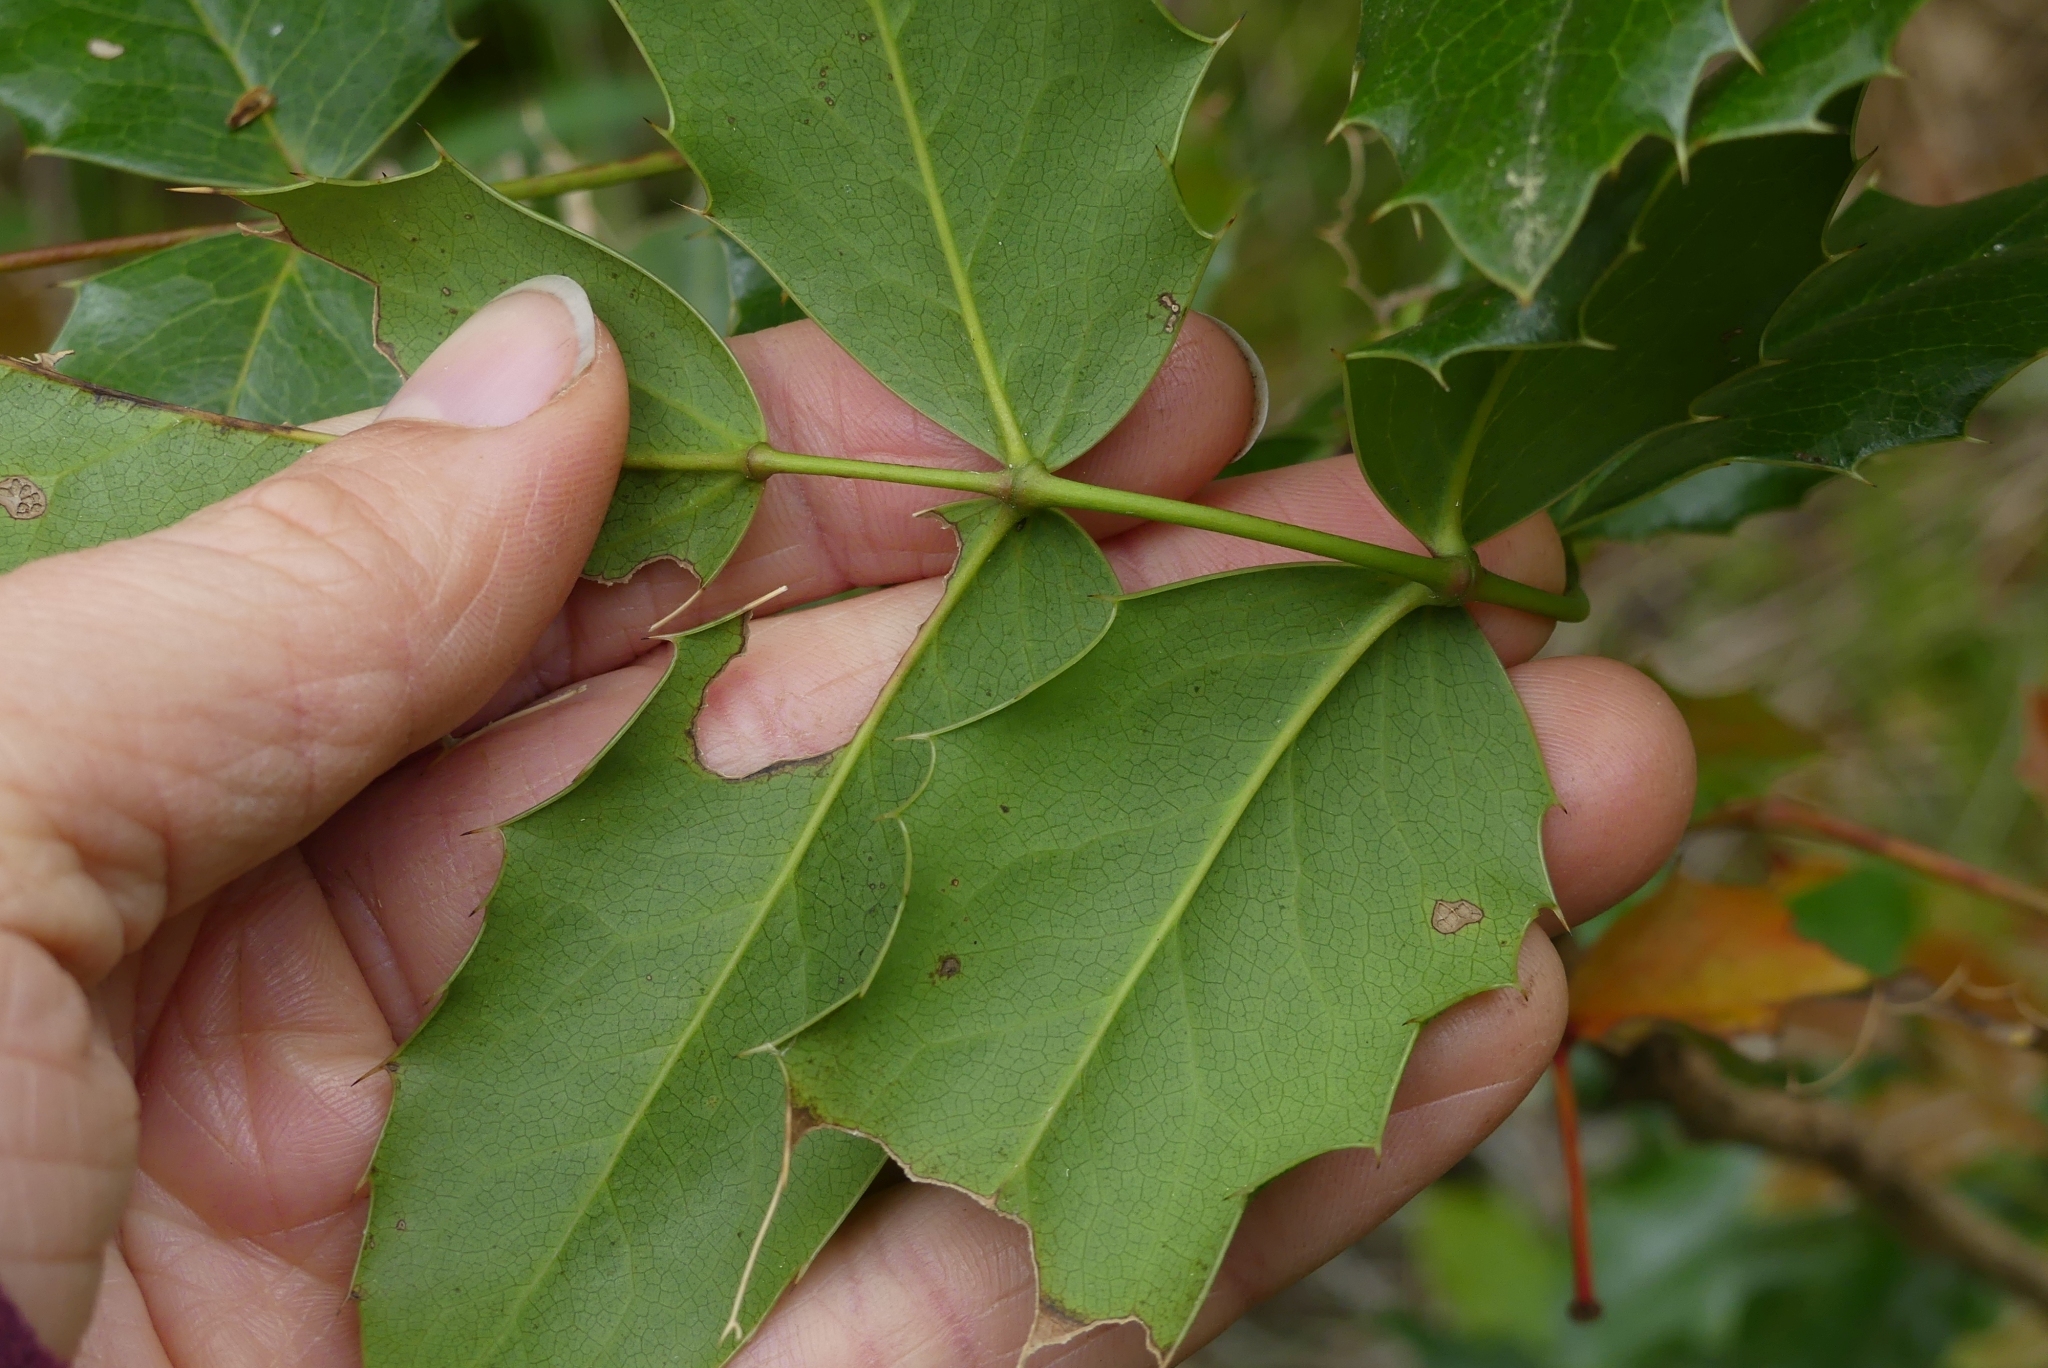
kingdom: Plantae
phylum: Tracheophyta
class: Magnoliopsida
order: Ranunculales
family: Berberidaceae
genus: Mahonia
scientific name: Mahonia aquifolium
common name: Oregon-grape
